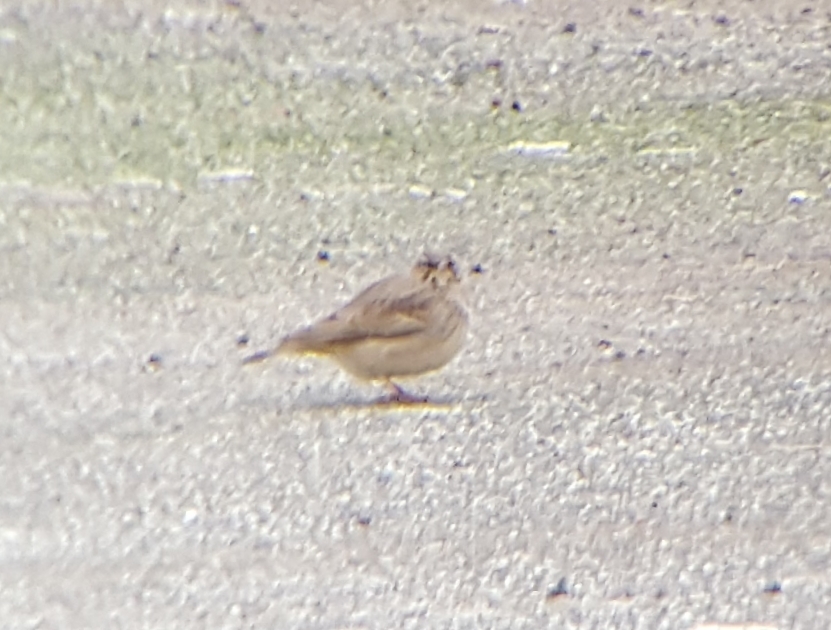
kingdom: Animalia
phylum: Chordata
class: Aves
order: Passeriformes
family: Alaudidae
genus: Galerida
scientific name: Galerida cristata
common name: Crested lark
